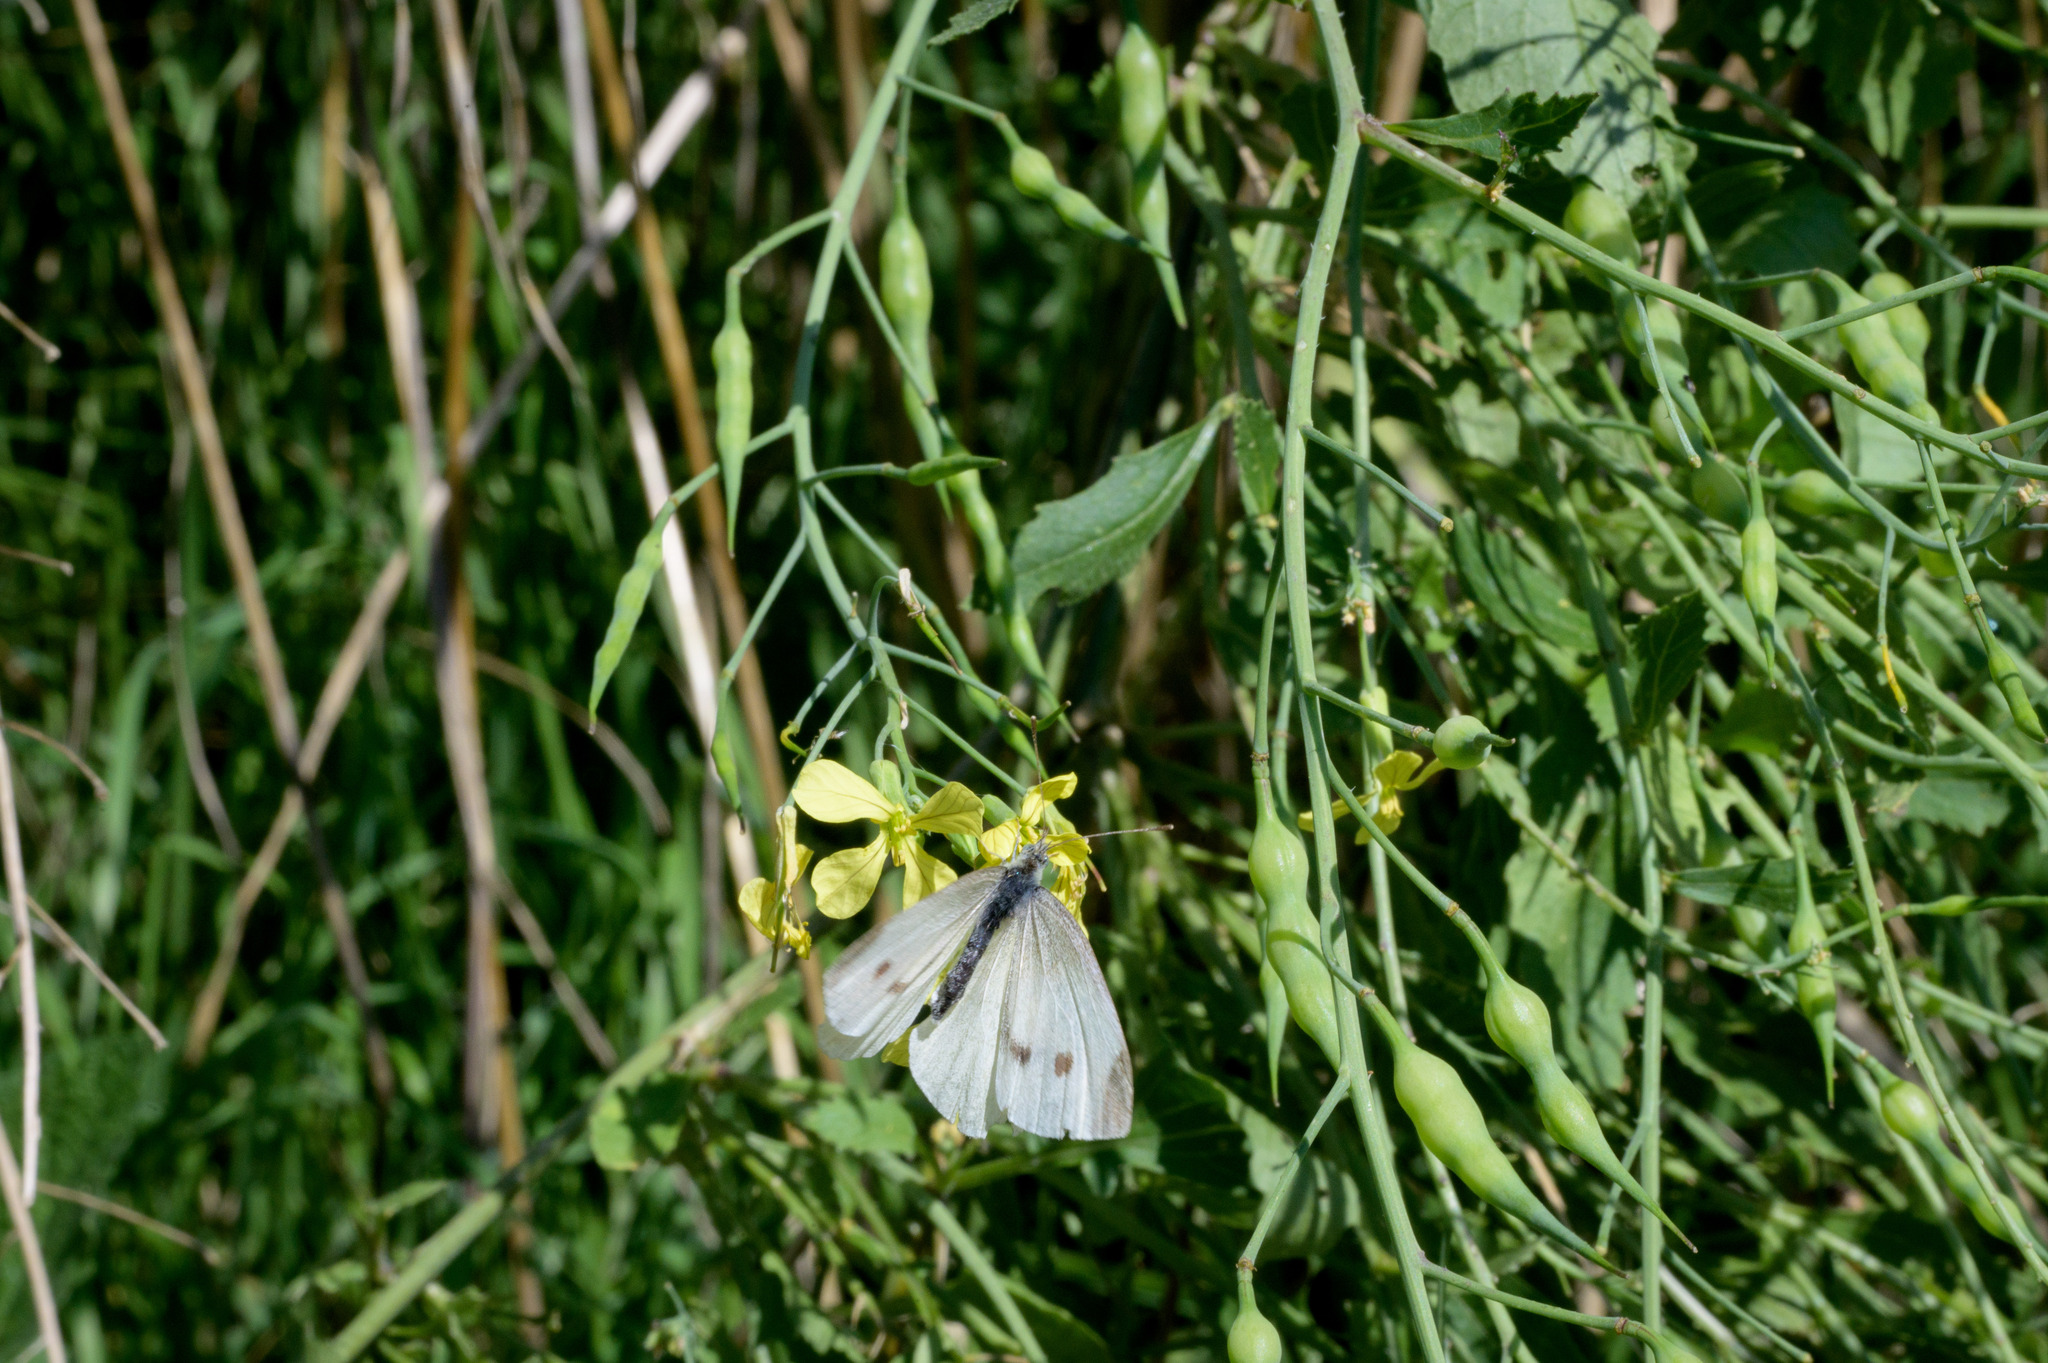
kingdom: Animalia
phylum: Arthropoda
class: Insecta
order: Lepidoptera
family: Pieridae
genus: Pieris
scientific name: Pieris rapae
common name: Small white
